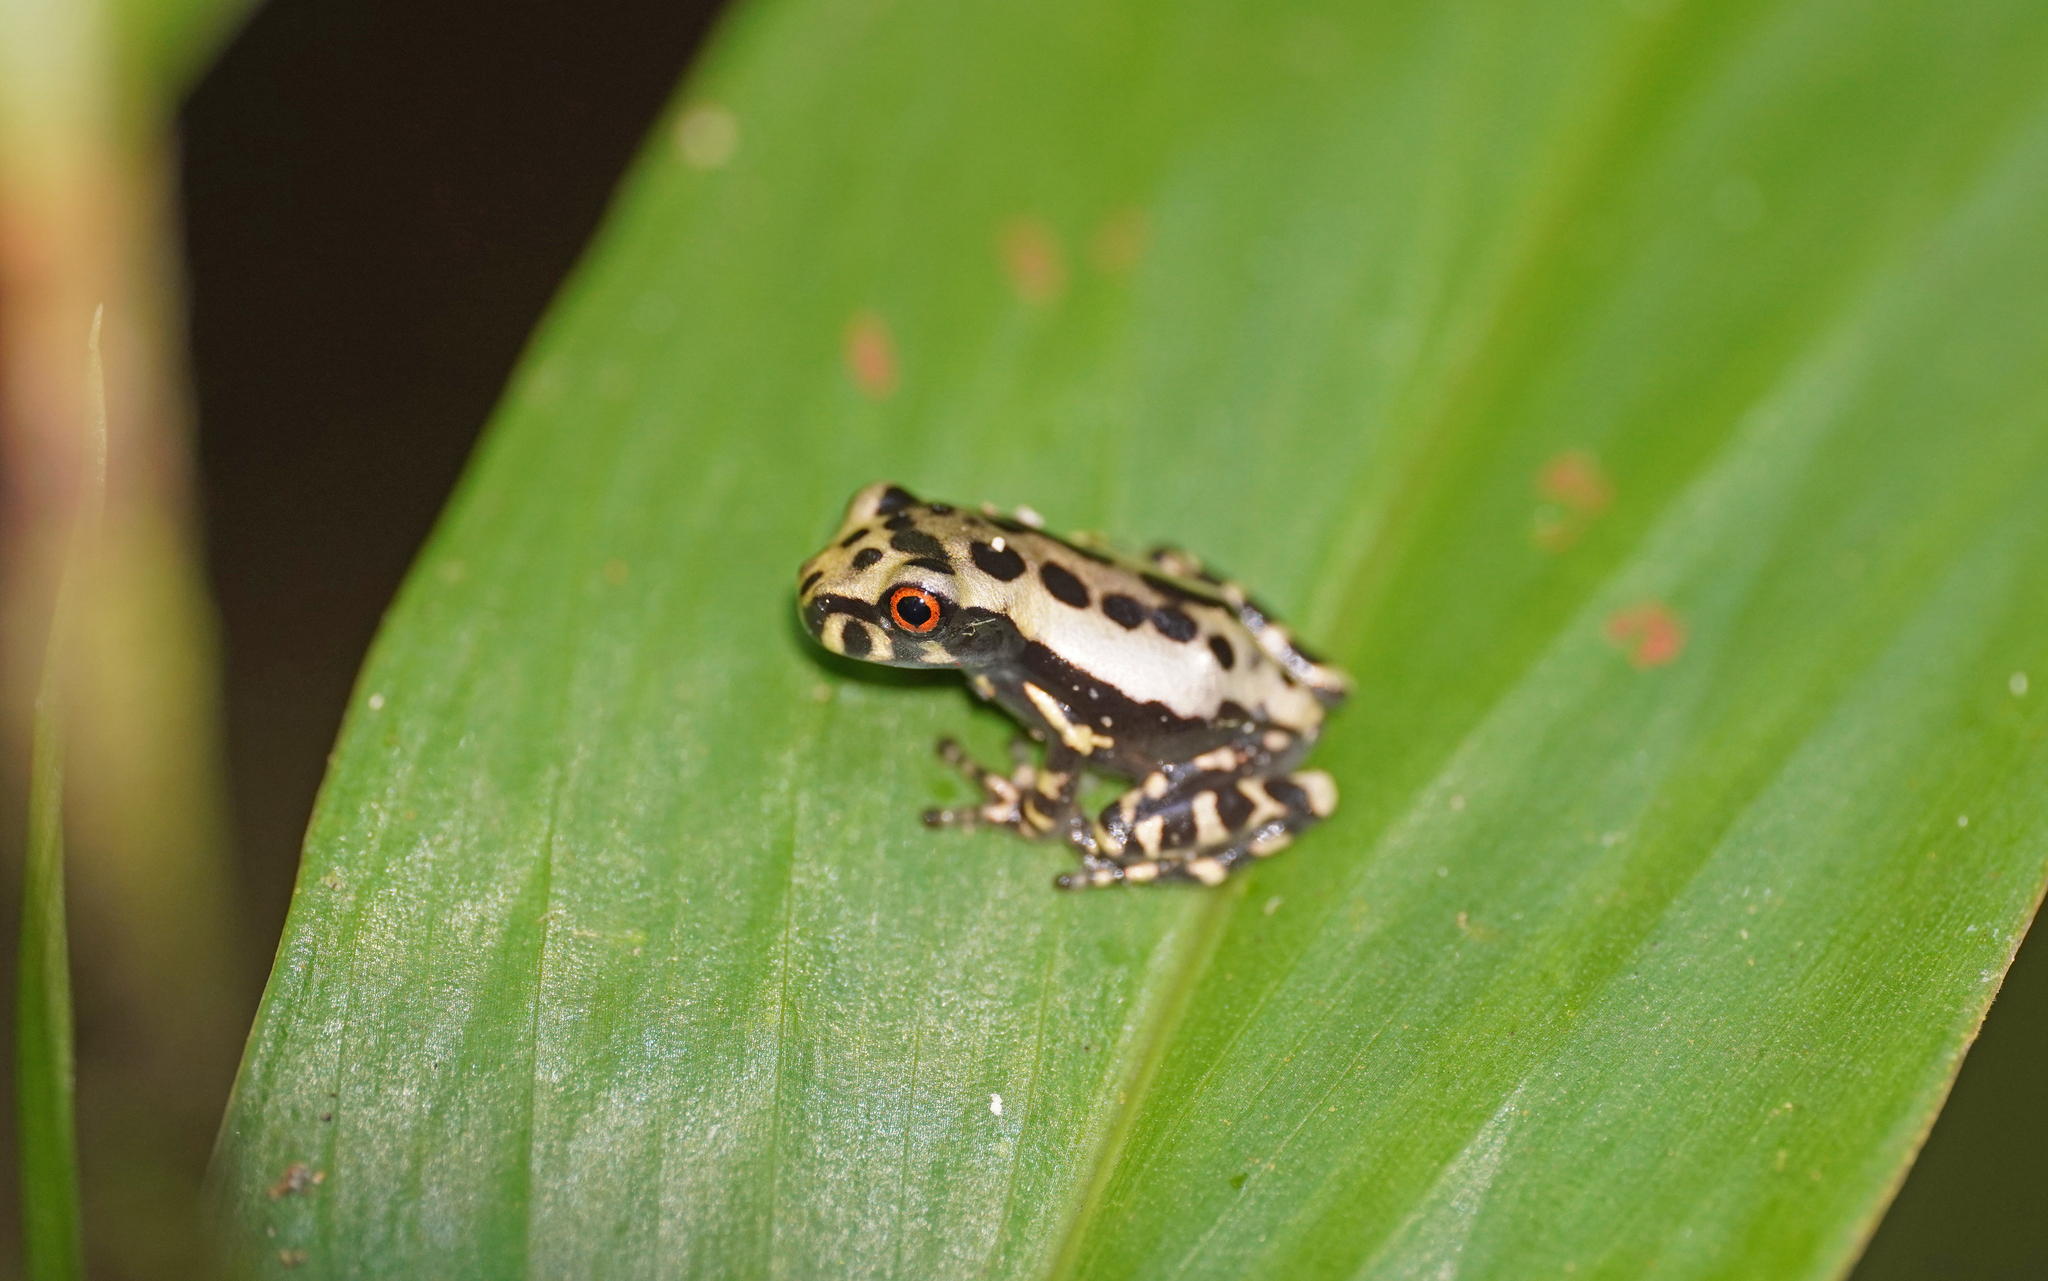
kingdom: Animalia
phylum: Chordata
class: Amphibia
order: Anura
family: Hylidae
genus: Osteocephalus
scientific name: Osteocephalus mimeticus
